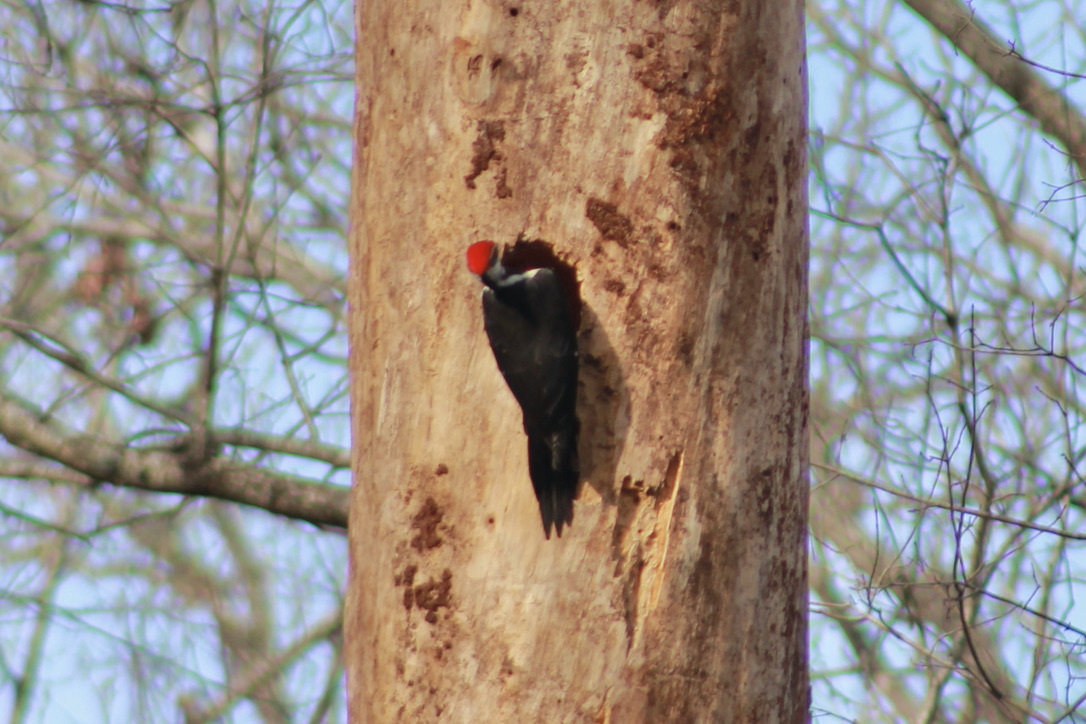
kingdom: Animalia
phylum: Chordata
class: Aves
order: Piciformes
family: Picidae
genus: Dryocopus
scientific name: Dryocopus pileatus
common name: Pileated woodpecker
